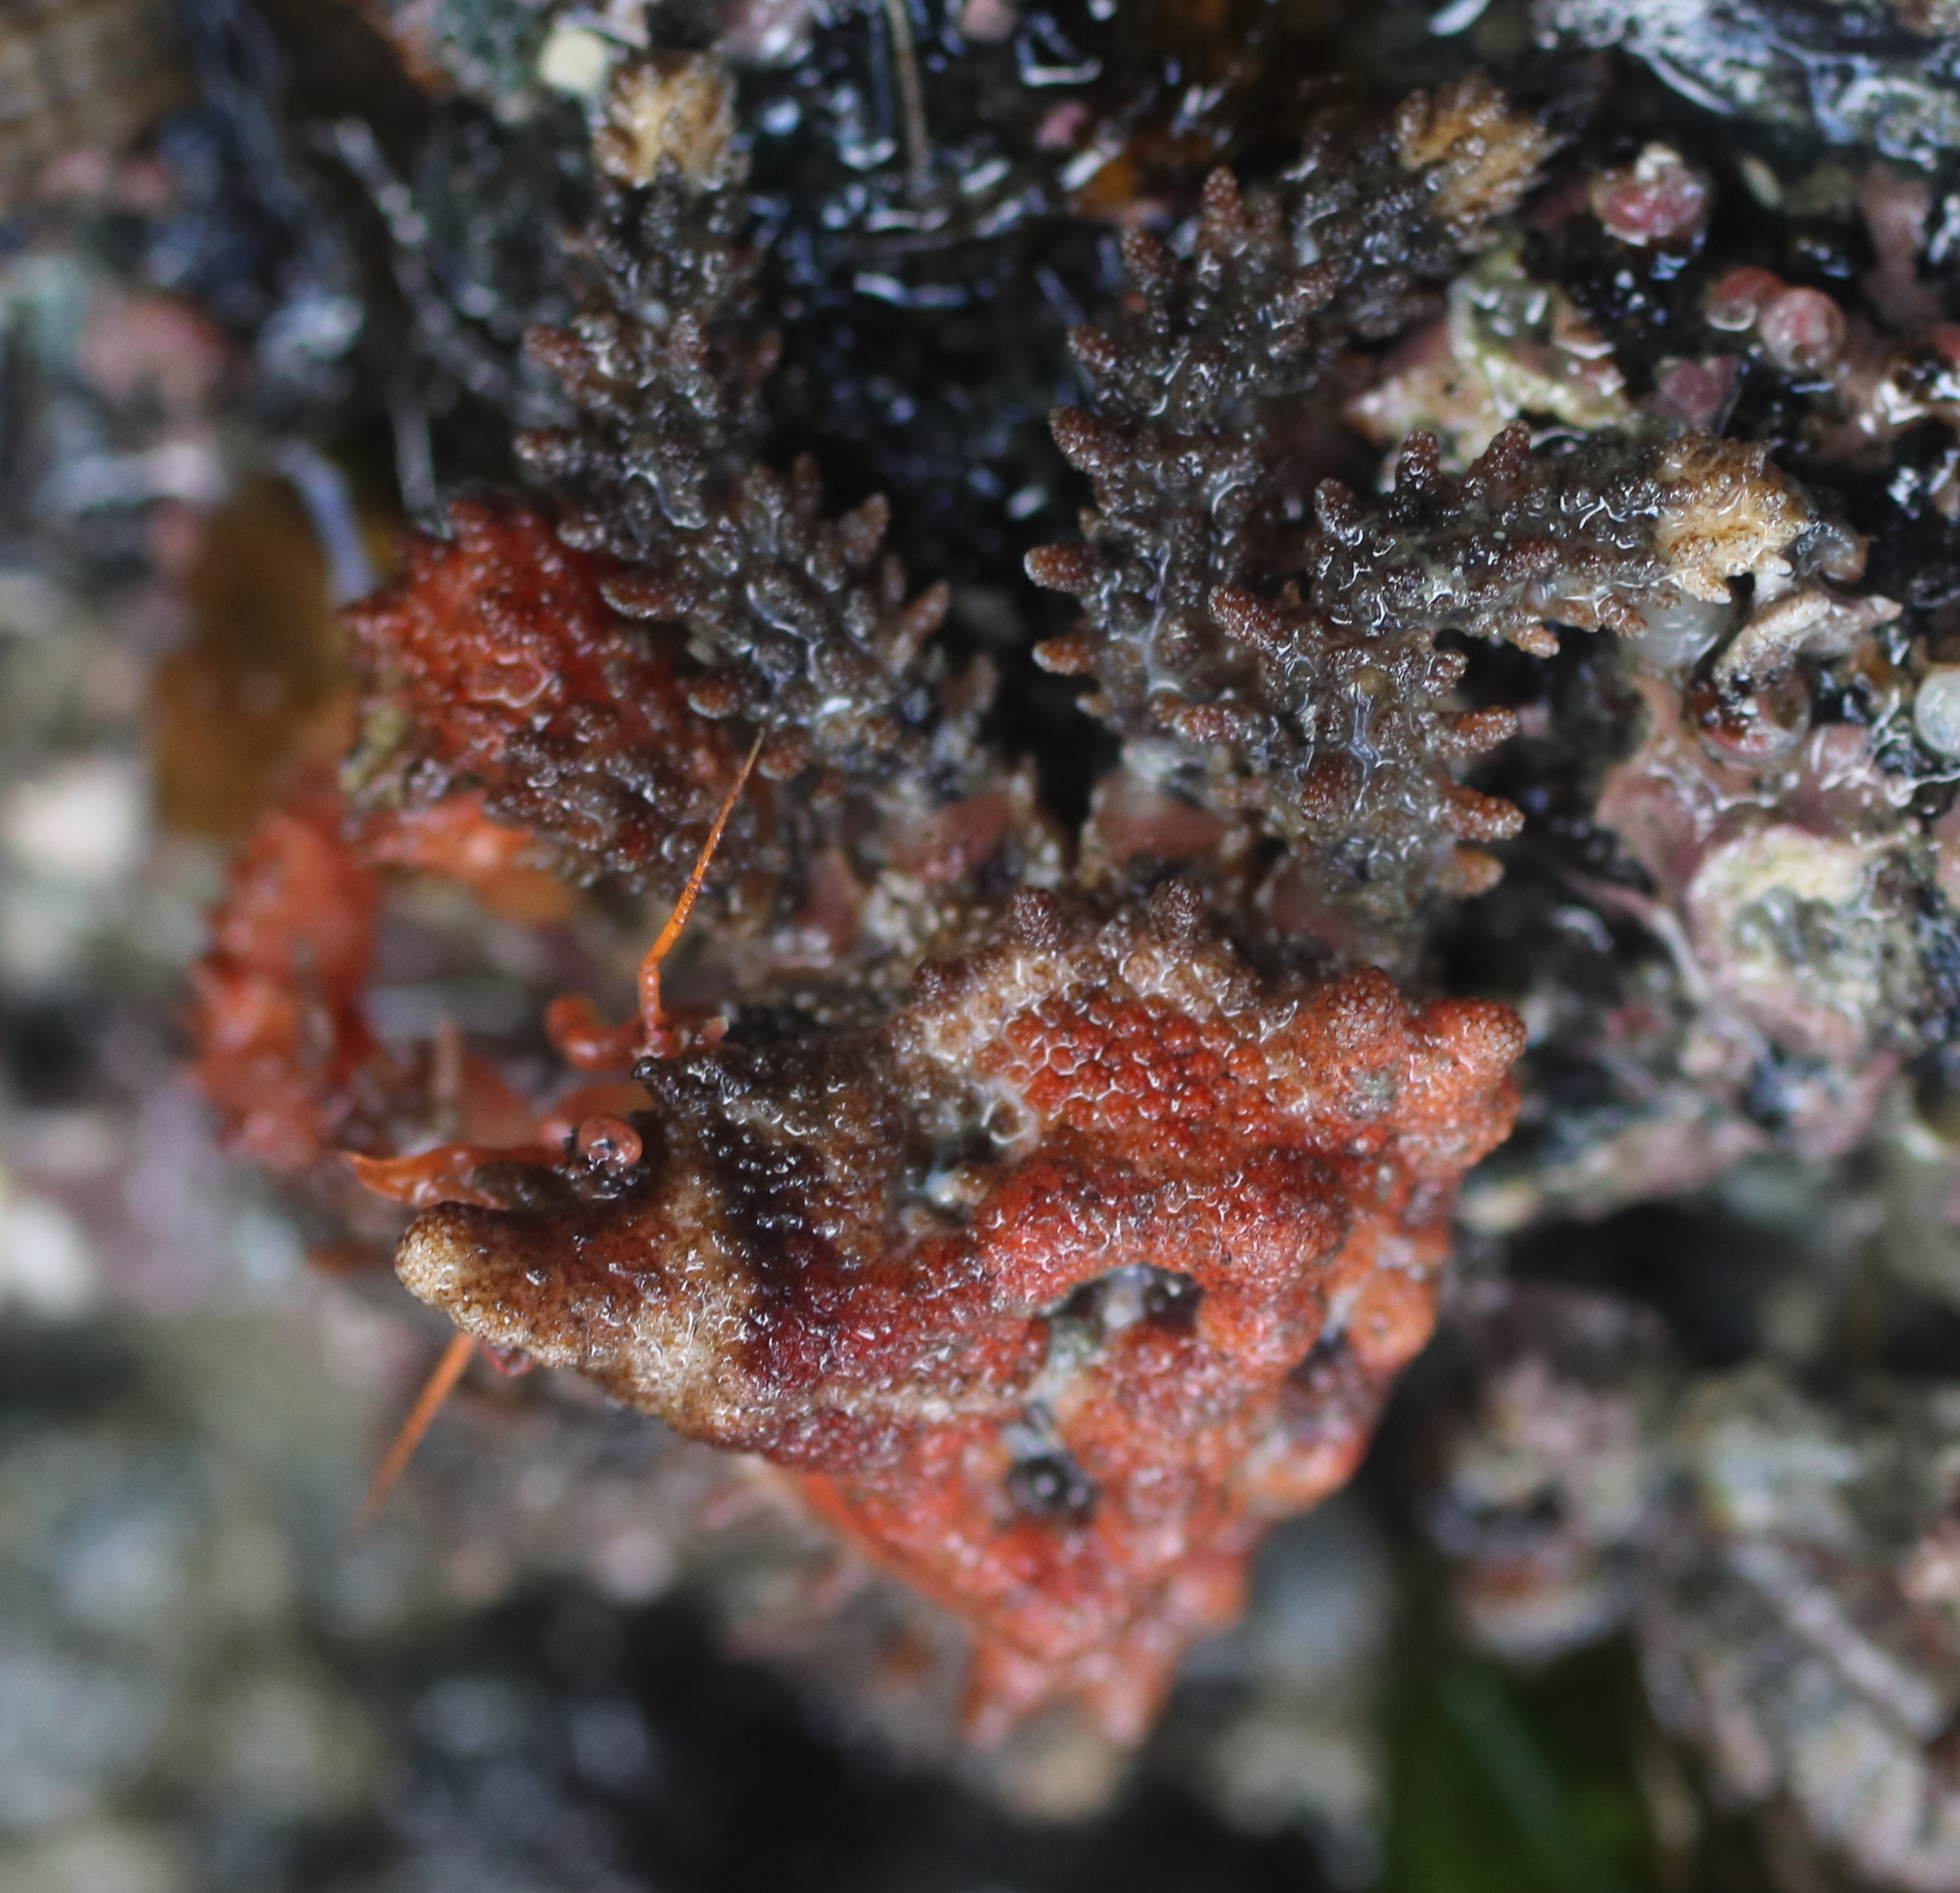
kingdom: Animalia
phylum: Arthropoda
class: Malacostraca
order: Decapoda
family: Lithodidae
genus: Phyllolithodes
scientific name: Phyllolithodes papillosus
